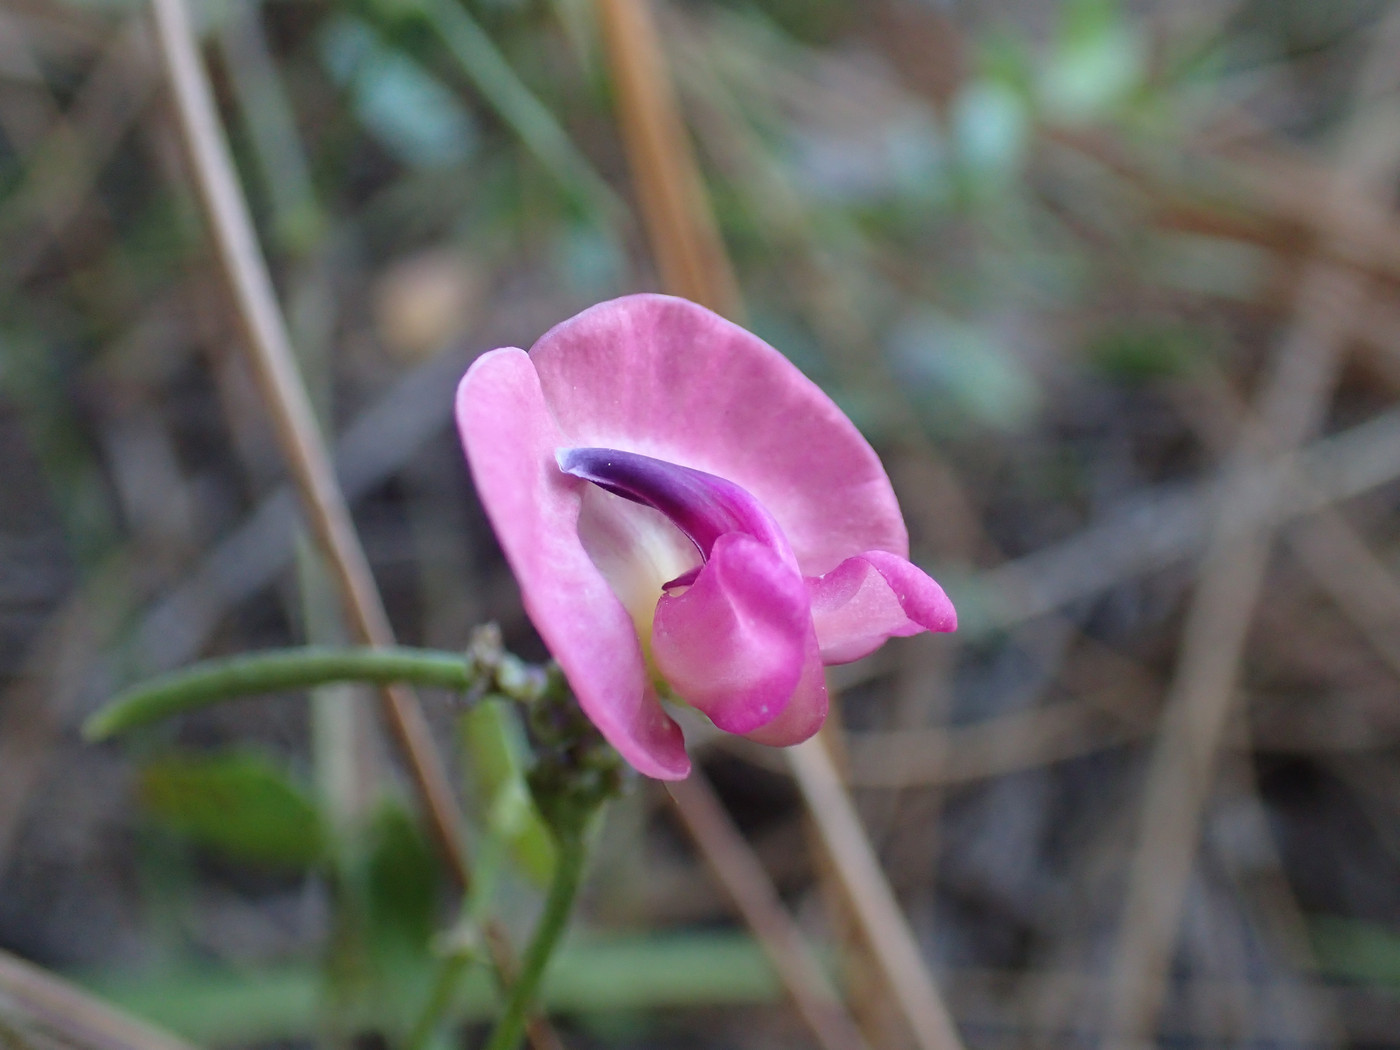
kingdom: Plantae
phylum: Tracheophyta
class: Magnoliopsida
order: Fabales
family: Fabaceae
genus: Strophostyles
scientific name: Strophostyles umbellata
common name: Perennial wild bean
